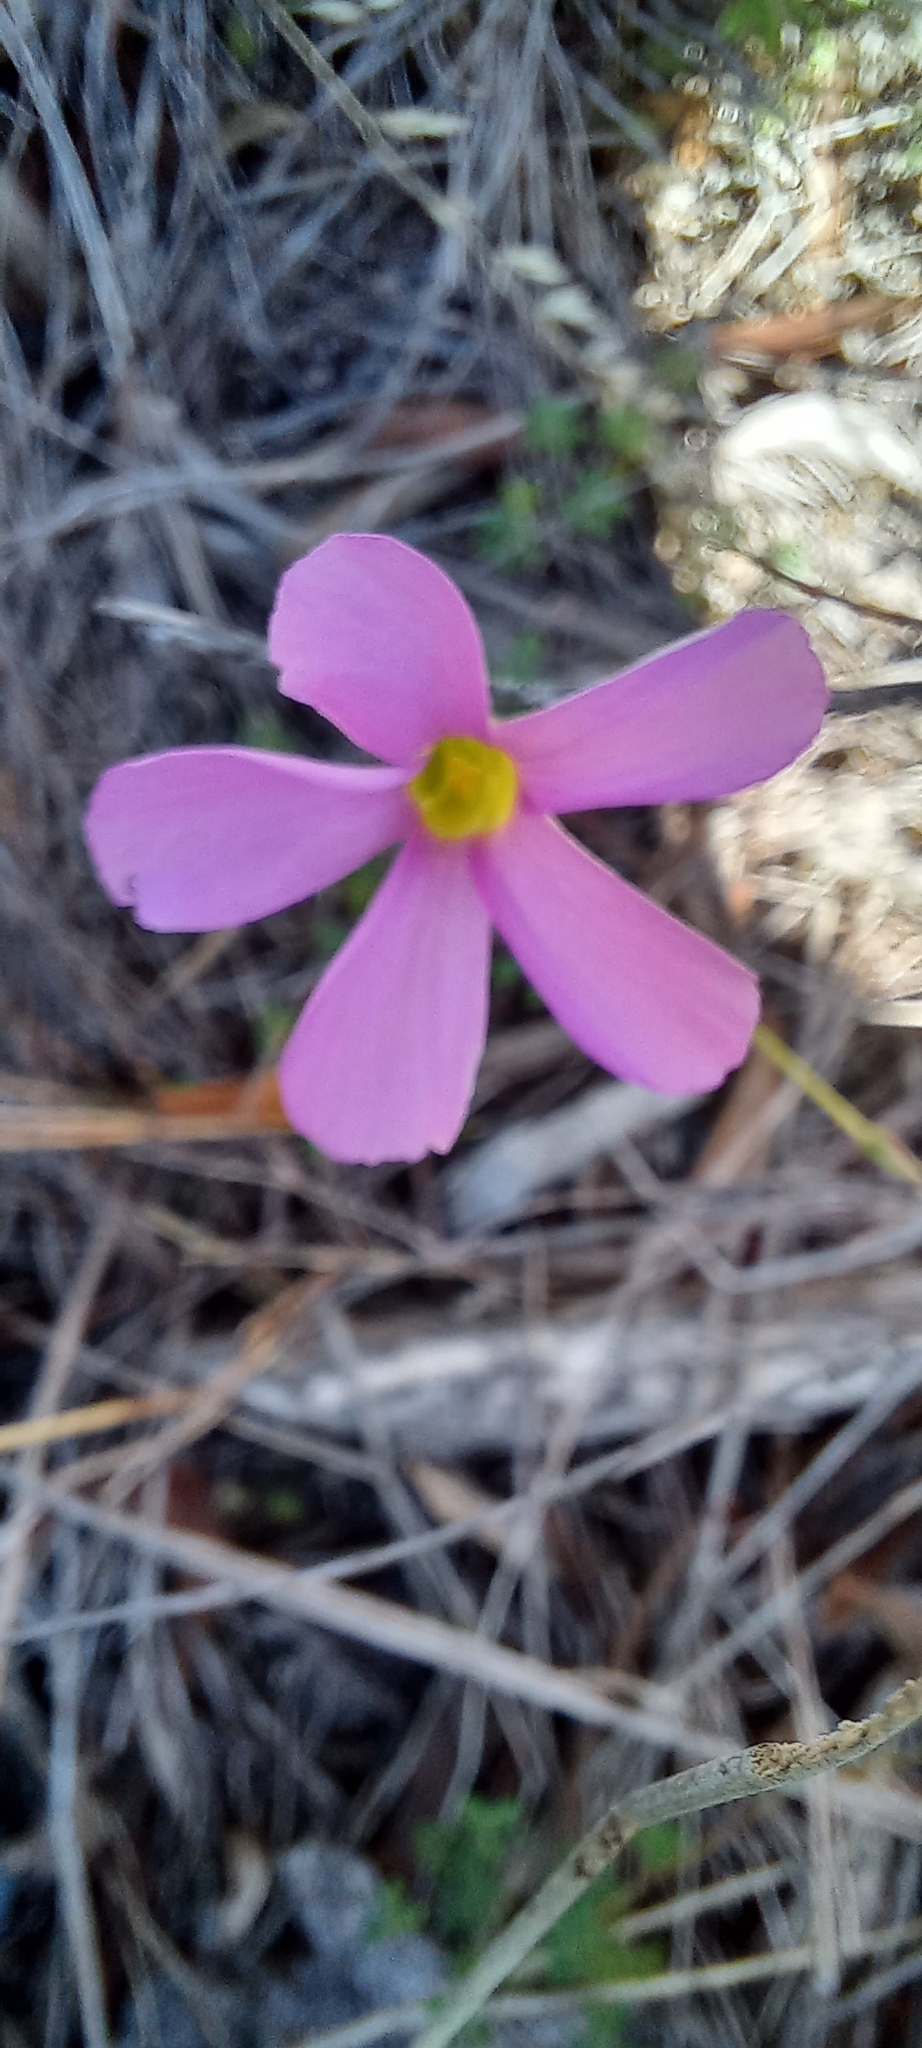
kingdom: Plantae
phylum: Tracheophyta
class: Magnoliopsida
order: Oxalidales
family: Oxalidaceae
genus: Oxalis
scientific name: Oxalis stellata
